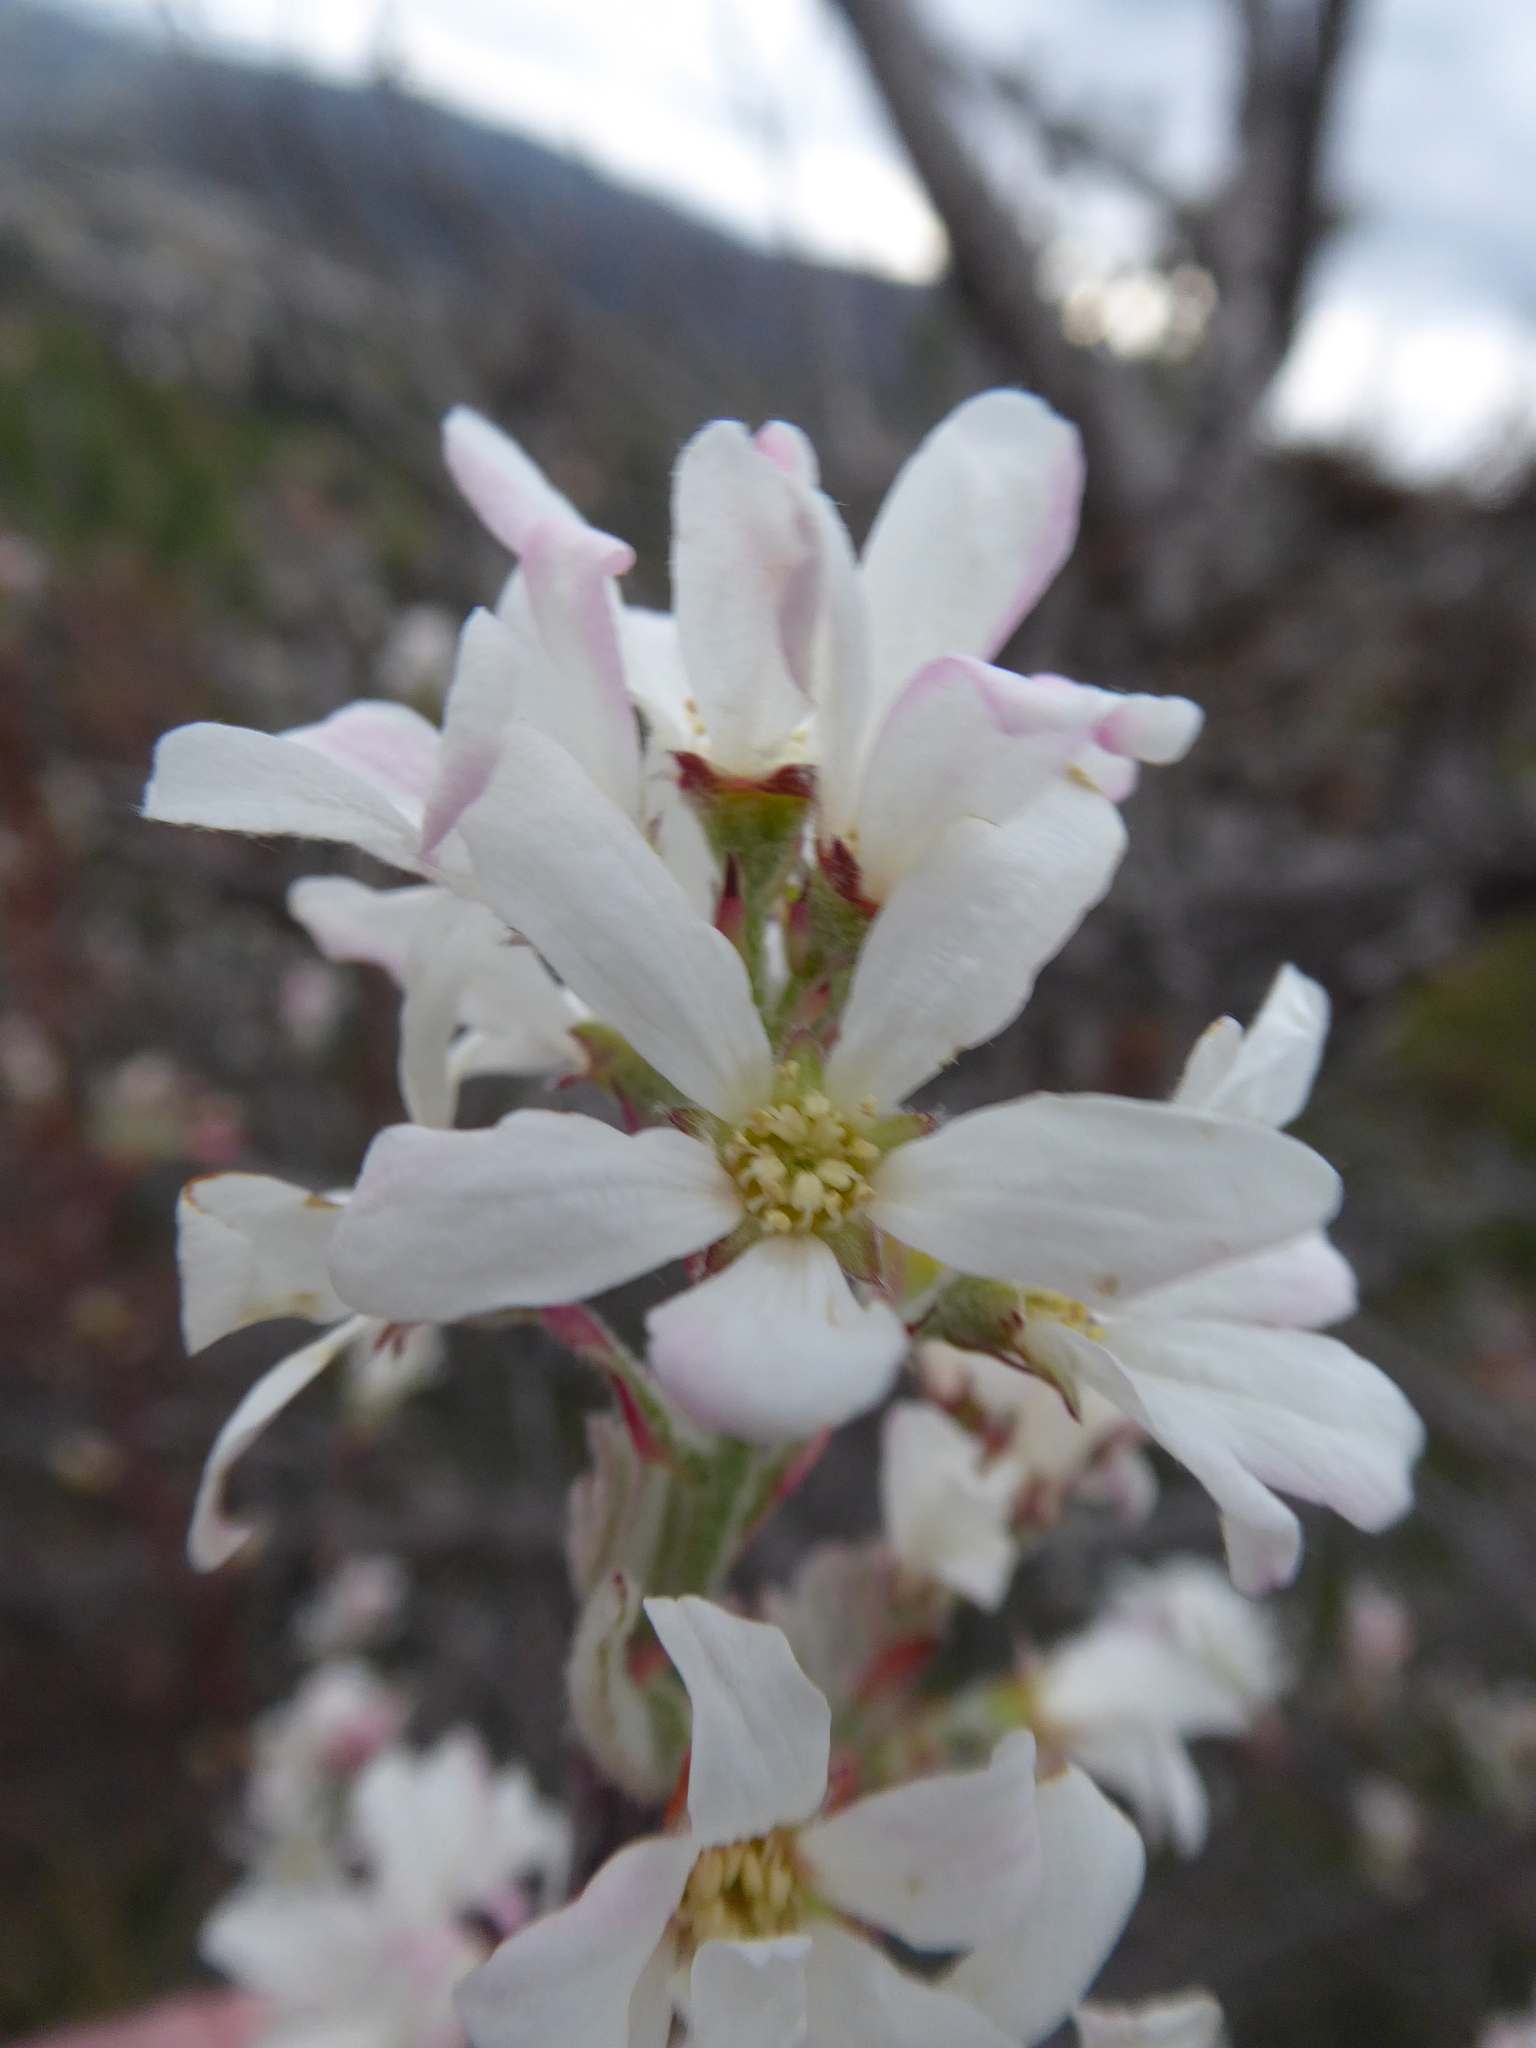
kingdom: Plantae
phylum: Tracheophyta
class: Magnoliopsida
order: Rosales
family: Rosaceae
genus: Amelanchier
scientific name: Amelanchier ovalis
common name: Serviceberry
